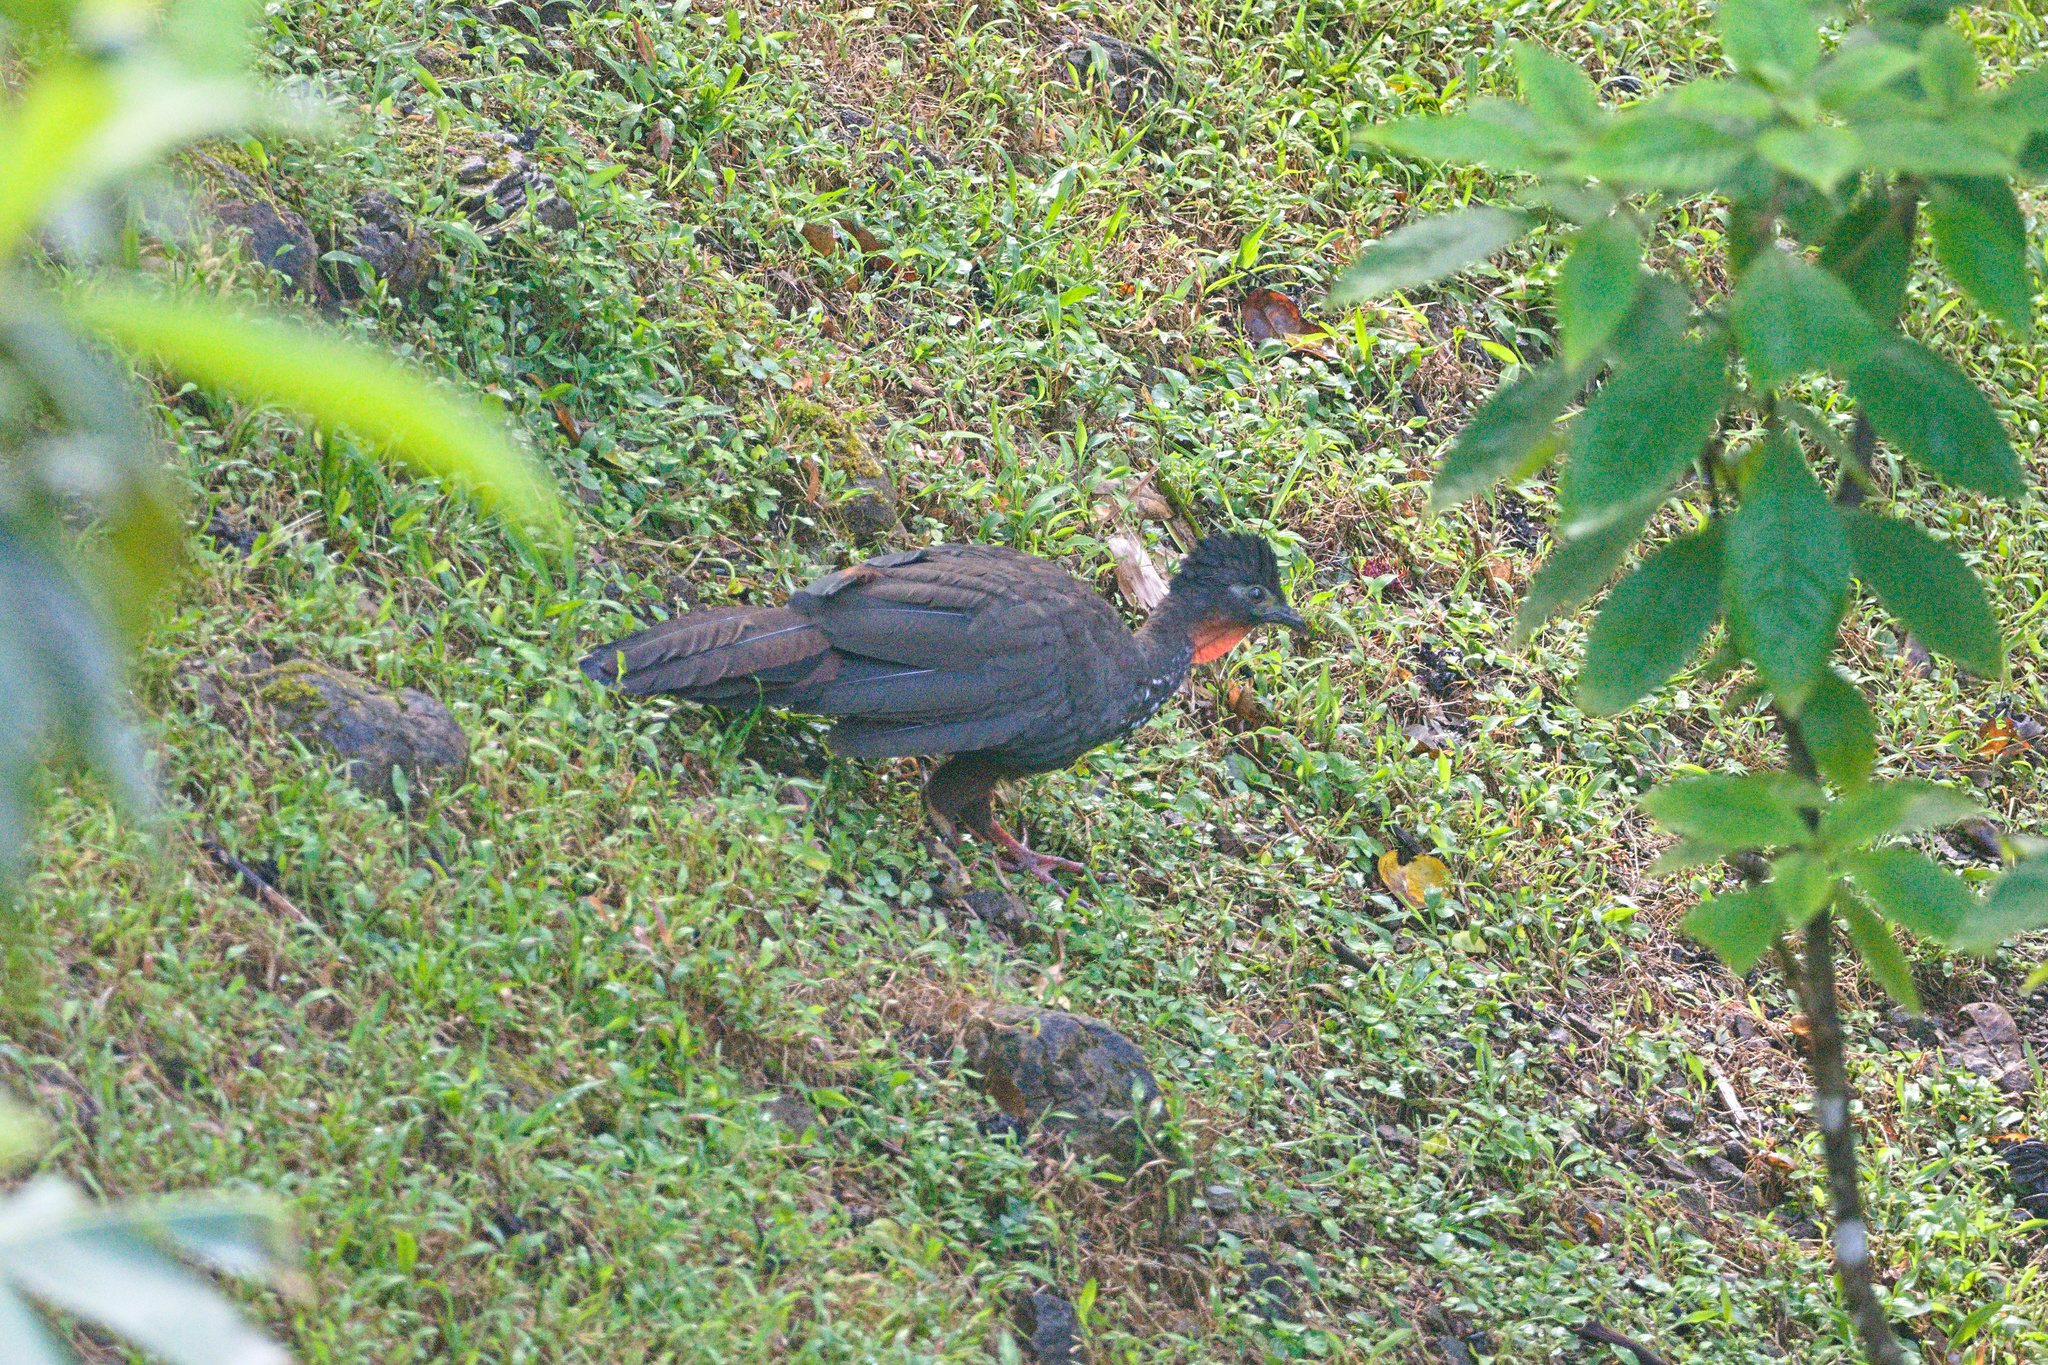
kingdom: Animalia
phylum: Chordata
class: Aves
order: Galliformes
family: Cracidae
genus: Penelope
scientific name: Penelope purpurascens
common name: Crested guan
